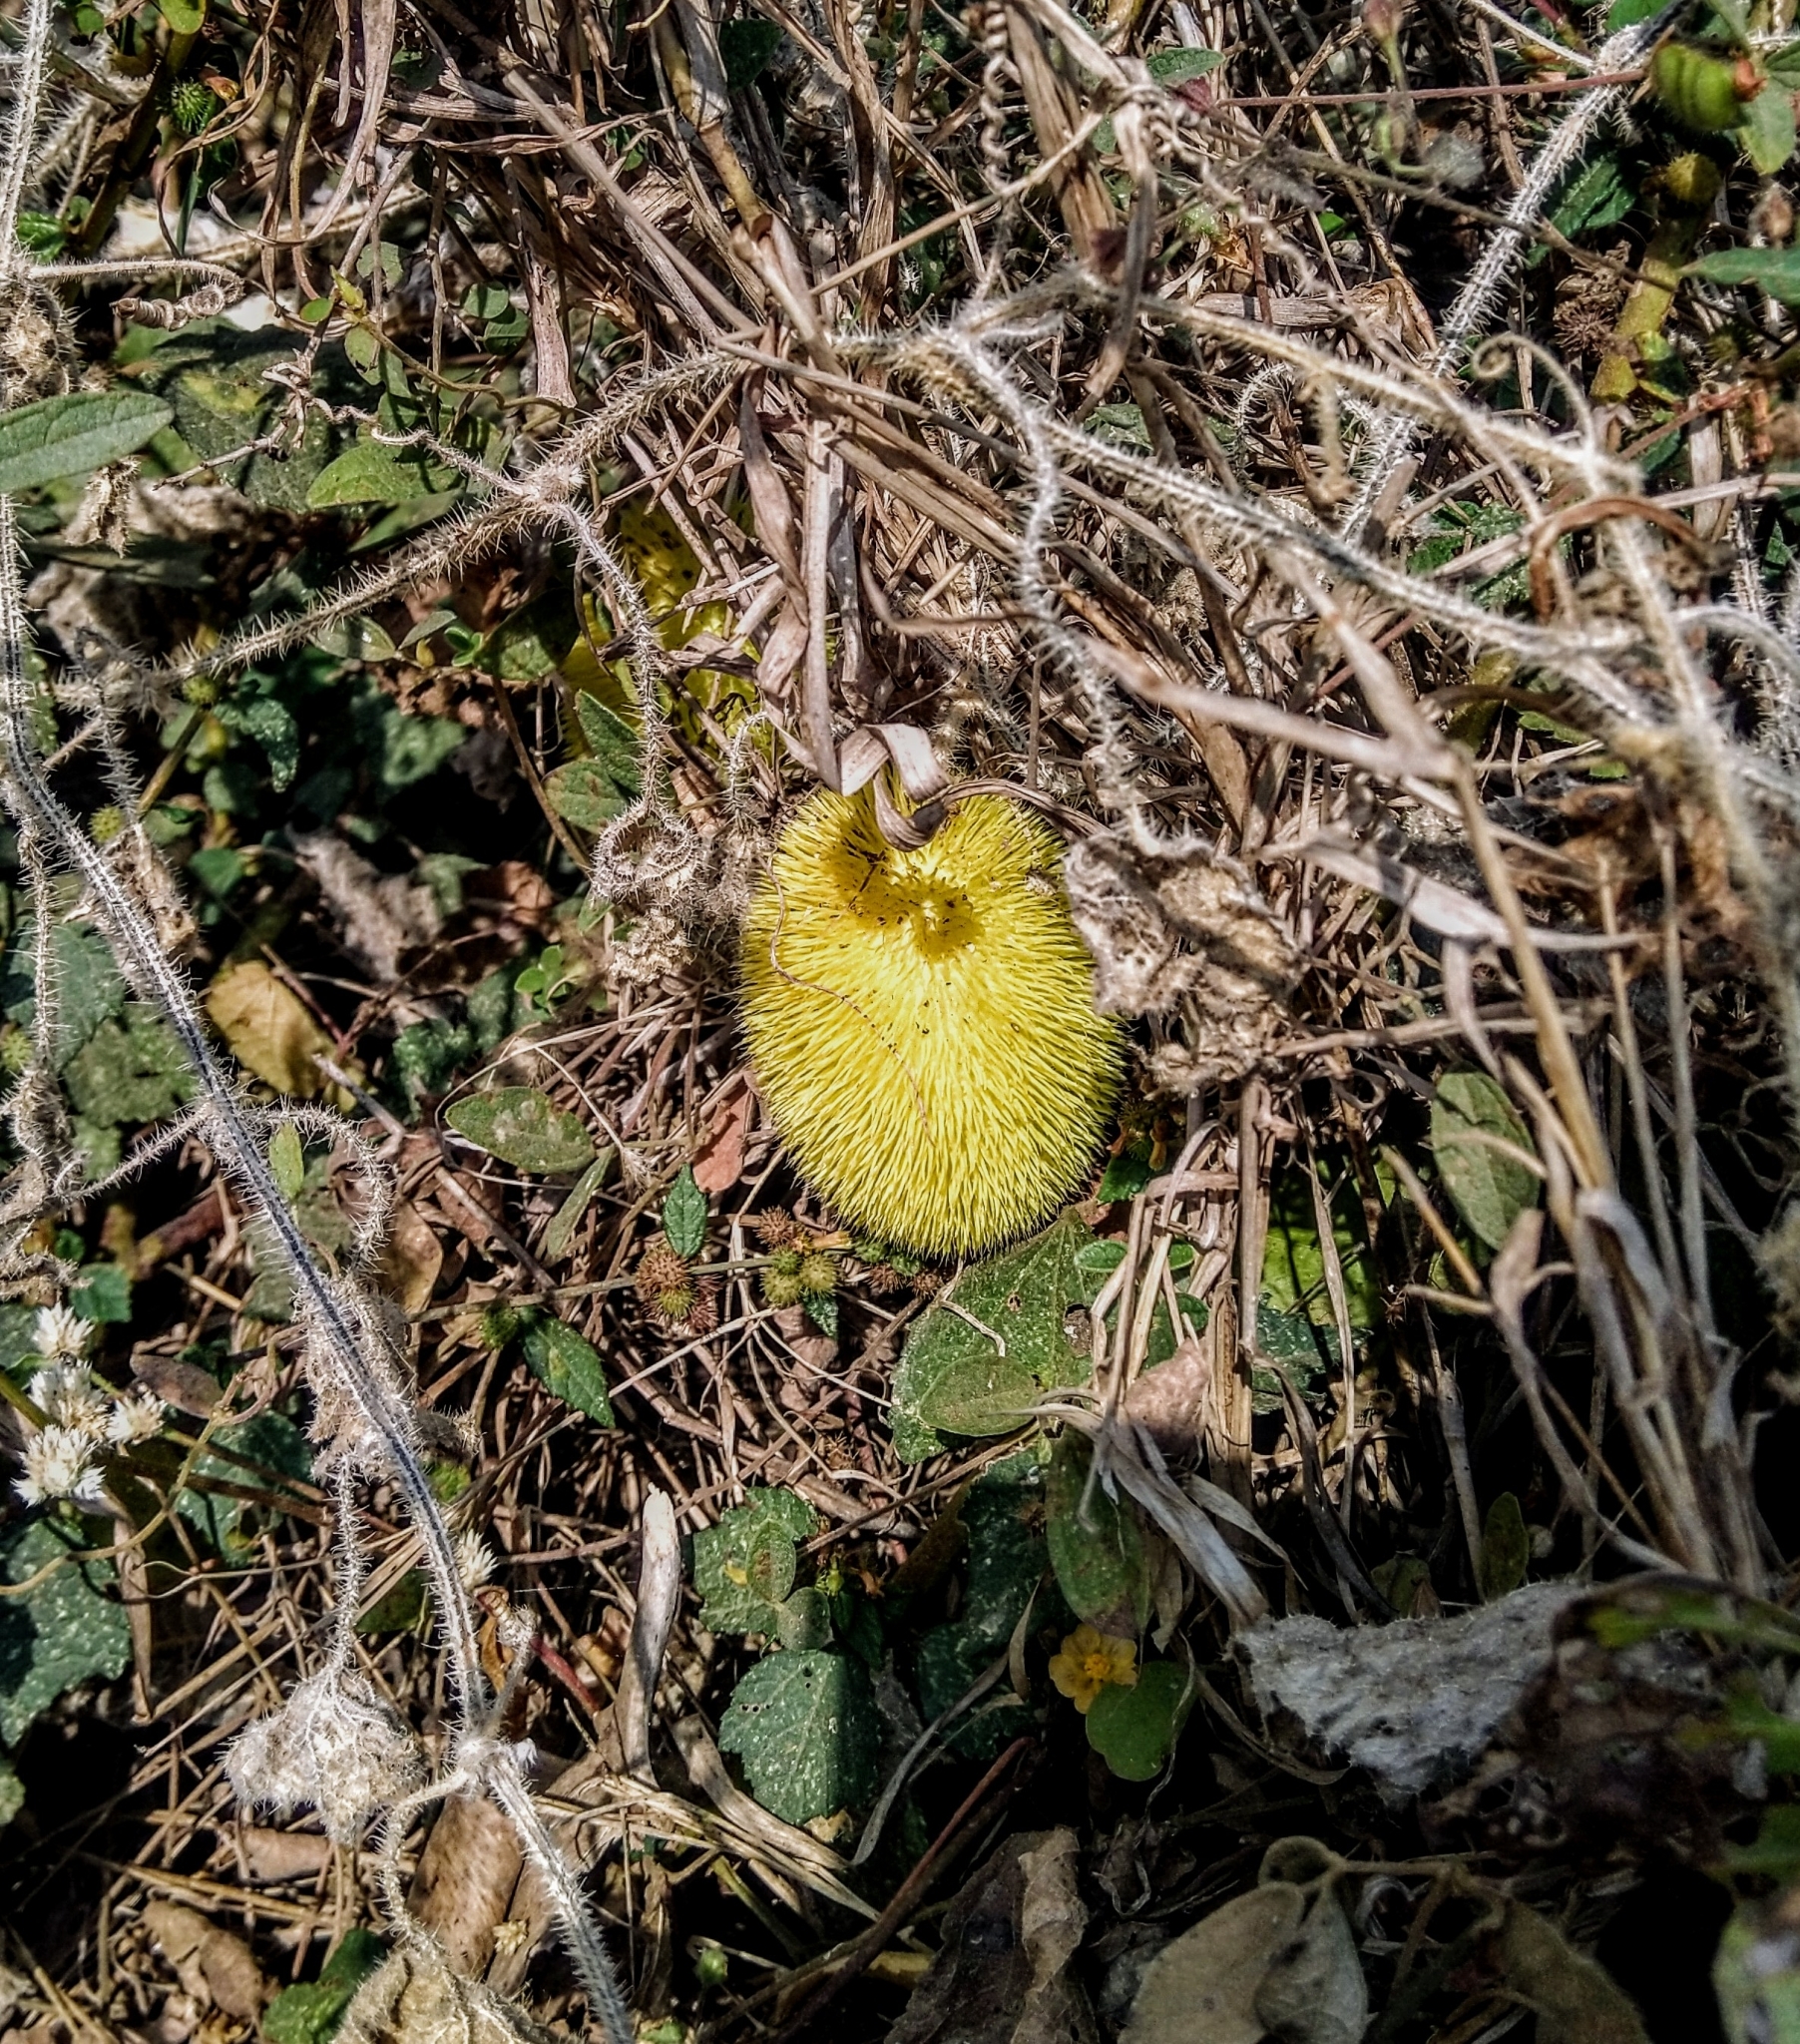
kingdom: Plantae
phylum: Tracheophyta
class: Magnoliopsida
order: Cucurbitales
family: Cucurbitaceae
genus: Cucumis
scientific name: Cucumis dipsaceus
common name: Hedgehog gourd
